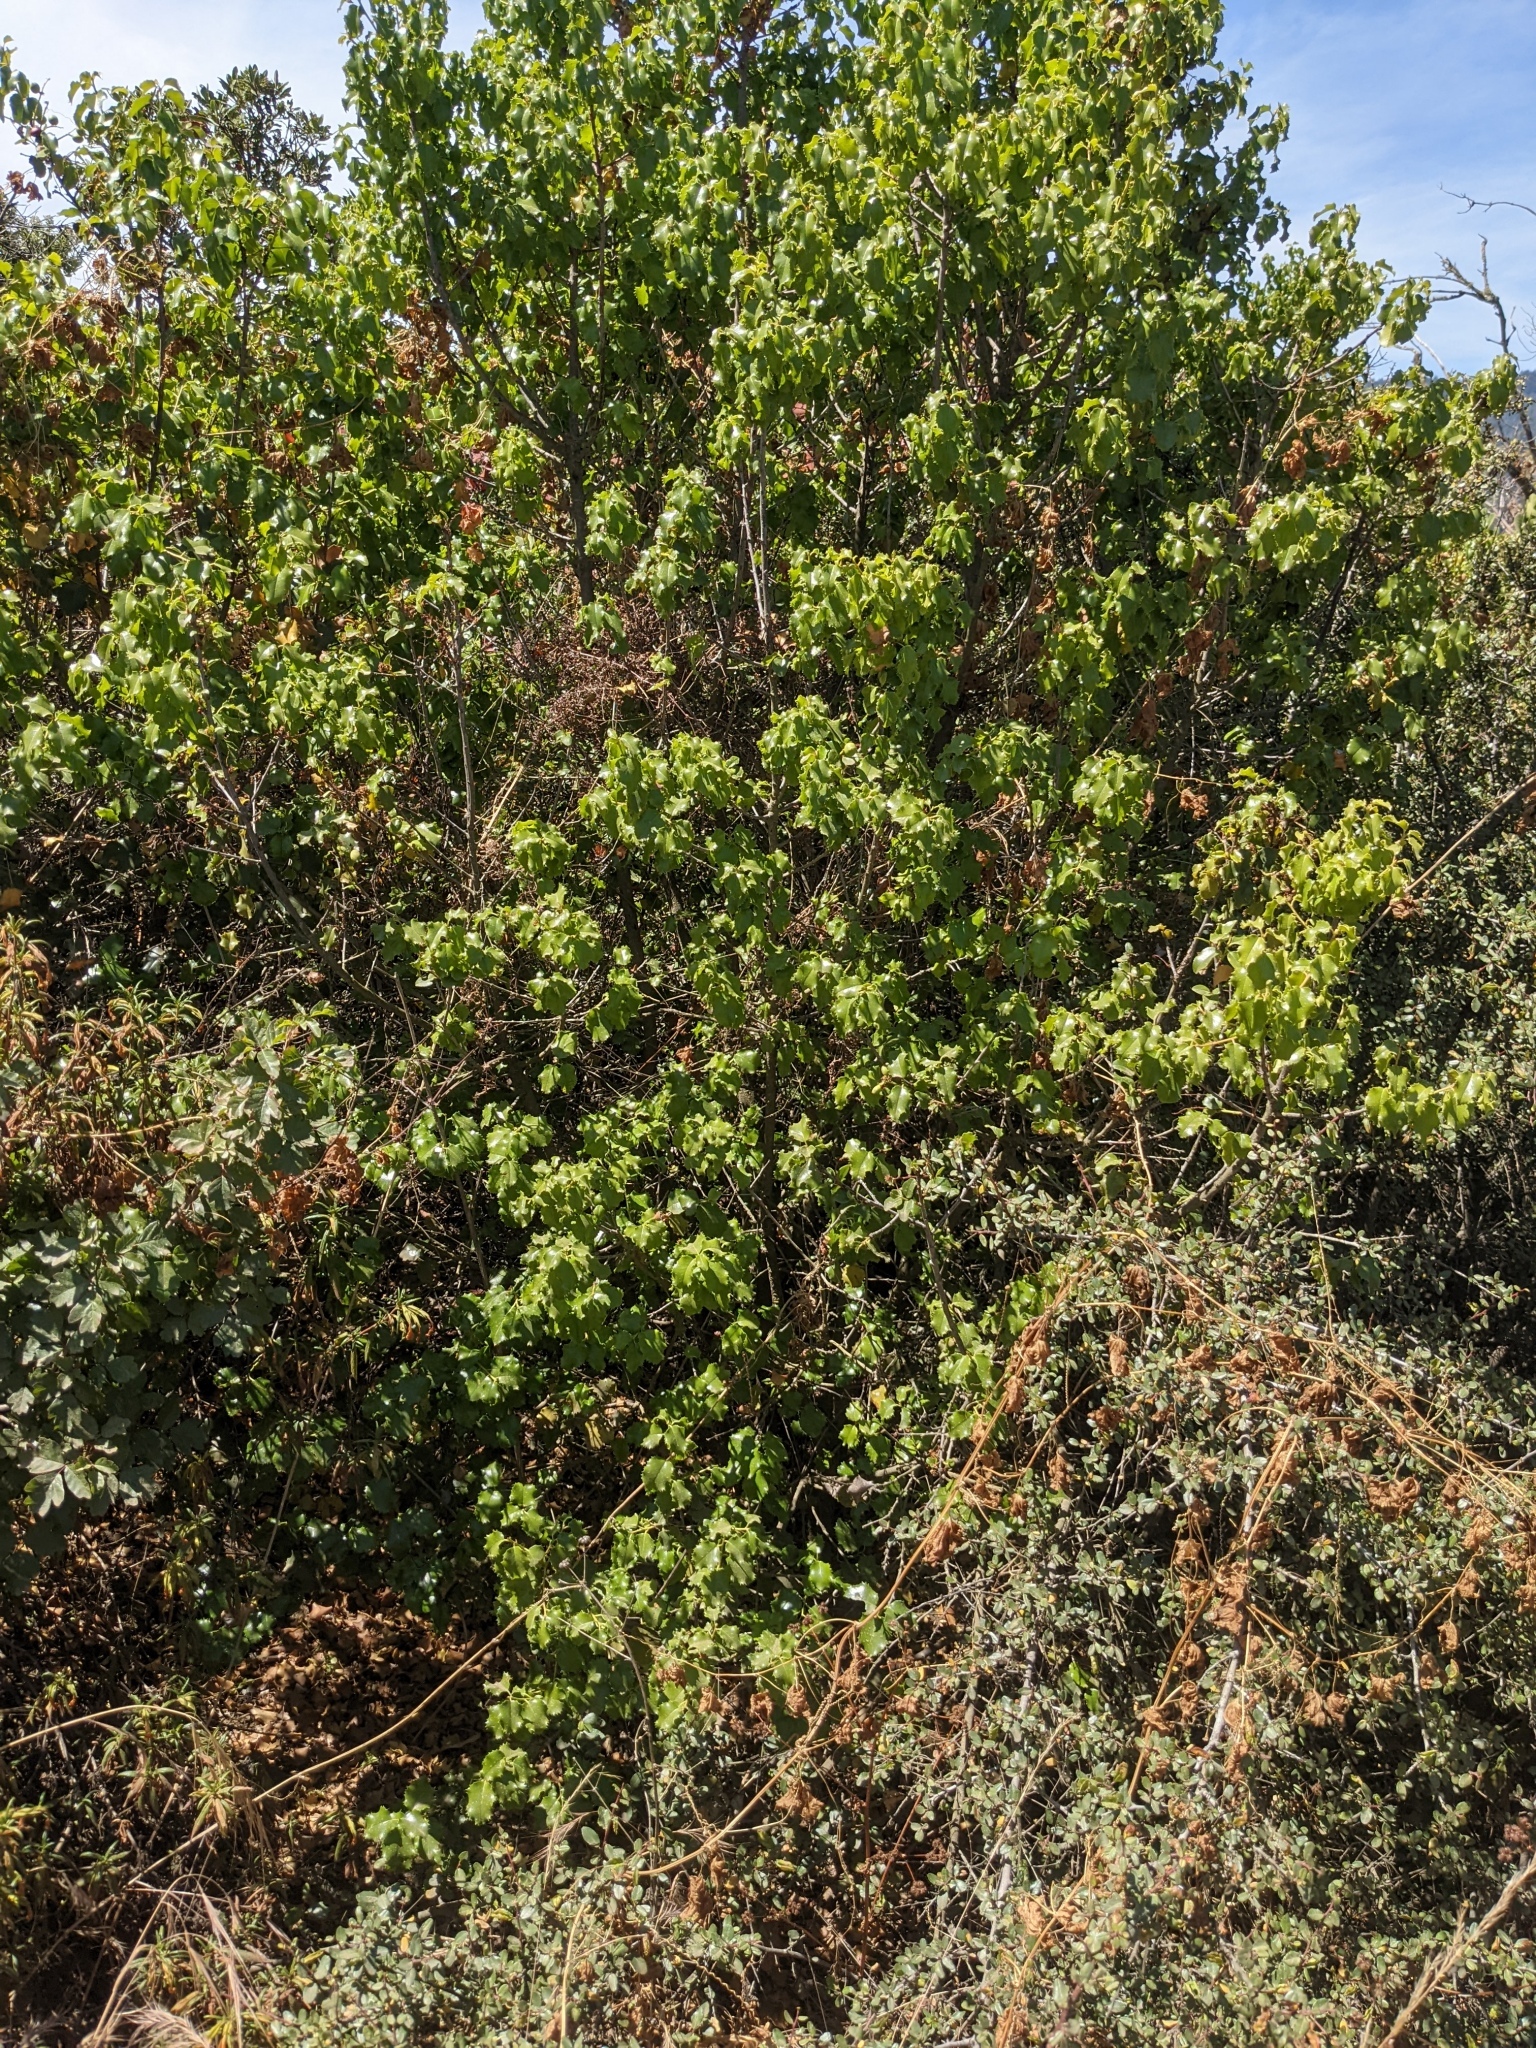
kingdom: Plantae
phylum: Tracheophyta
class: Magnoliopsida
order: Rosales
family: Rosaceae
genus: Prunus
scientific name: Prunus ilicifolia
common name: Hollyleaf cherry
